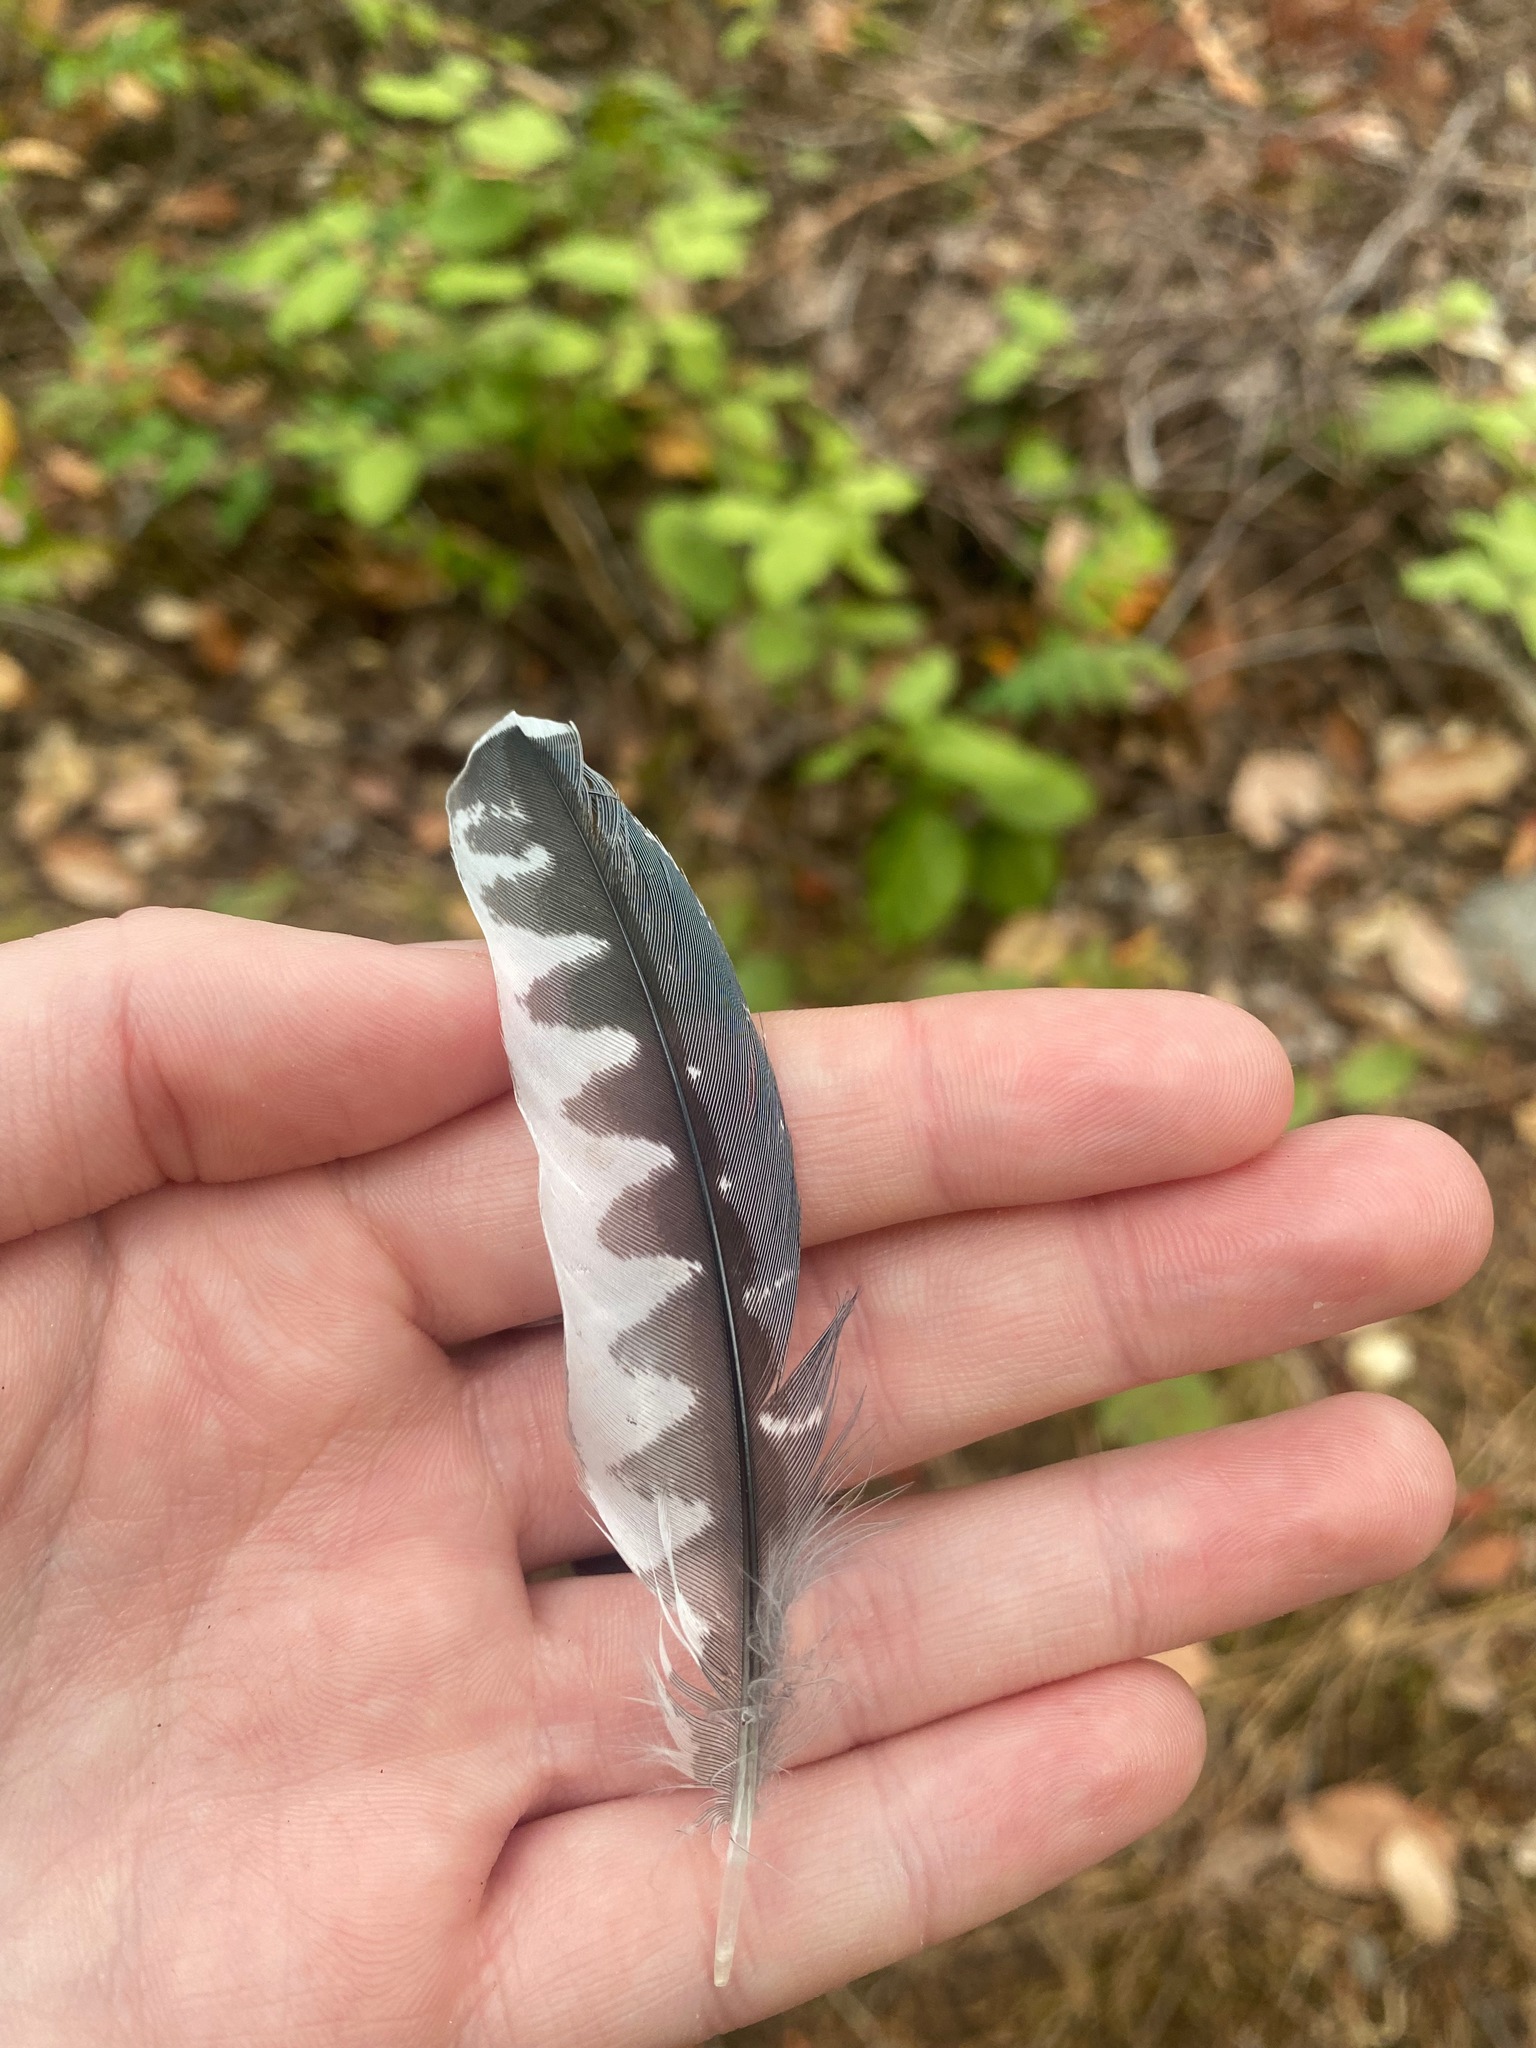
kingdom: Animalia
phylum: Chordata
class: Aves
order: Coraciiformes
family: Alcedinidae
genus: Megaceryle
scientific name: Megaceryle alcyon
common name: Belted kingfisher
